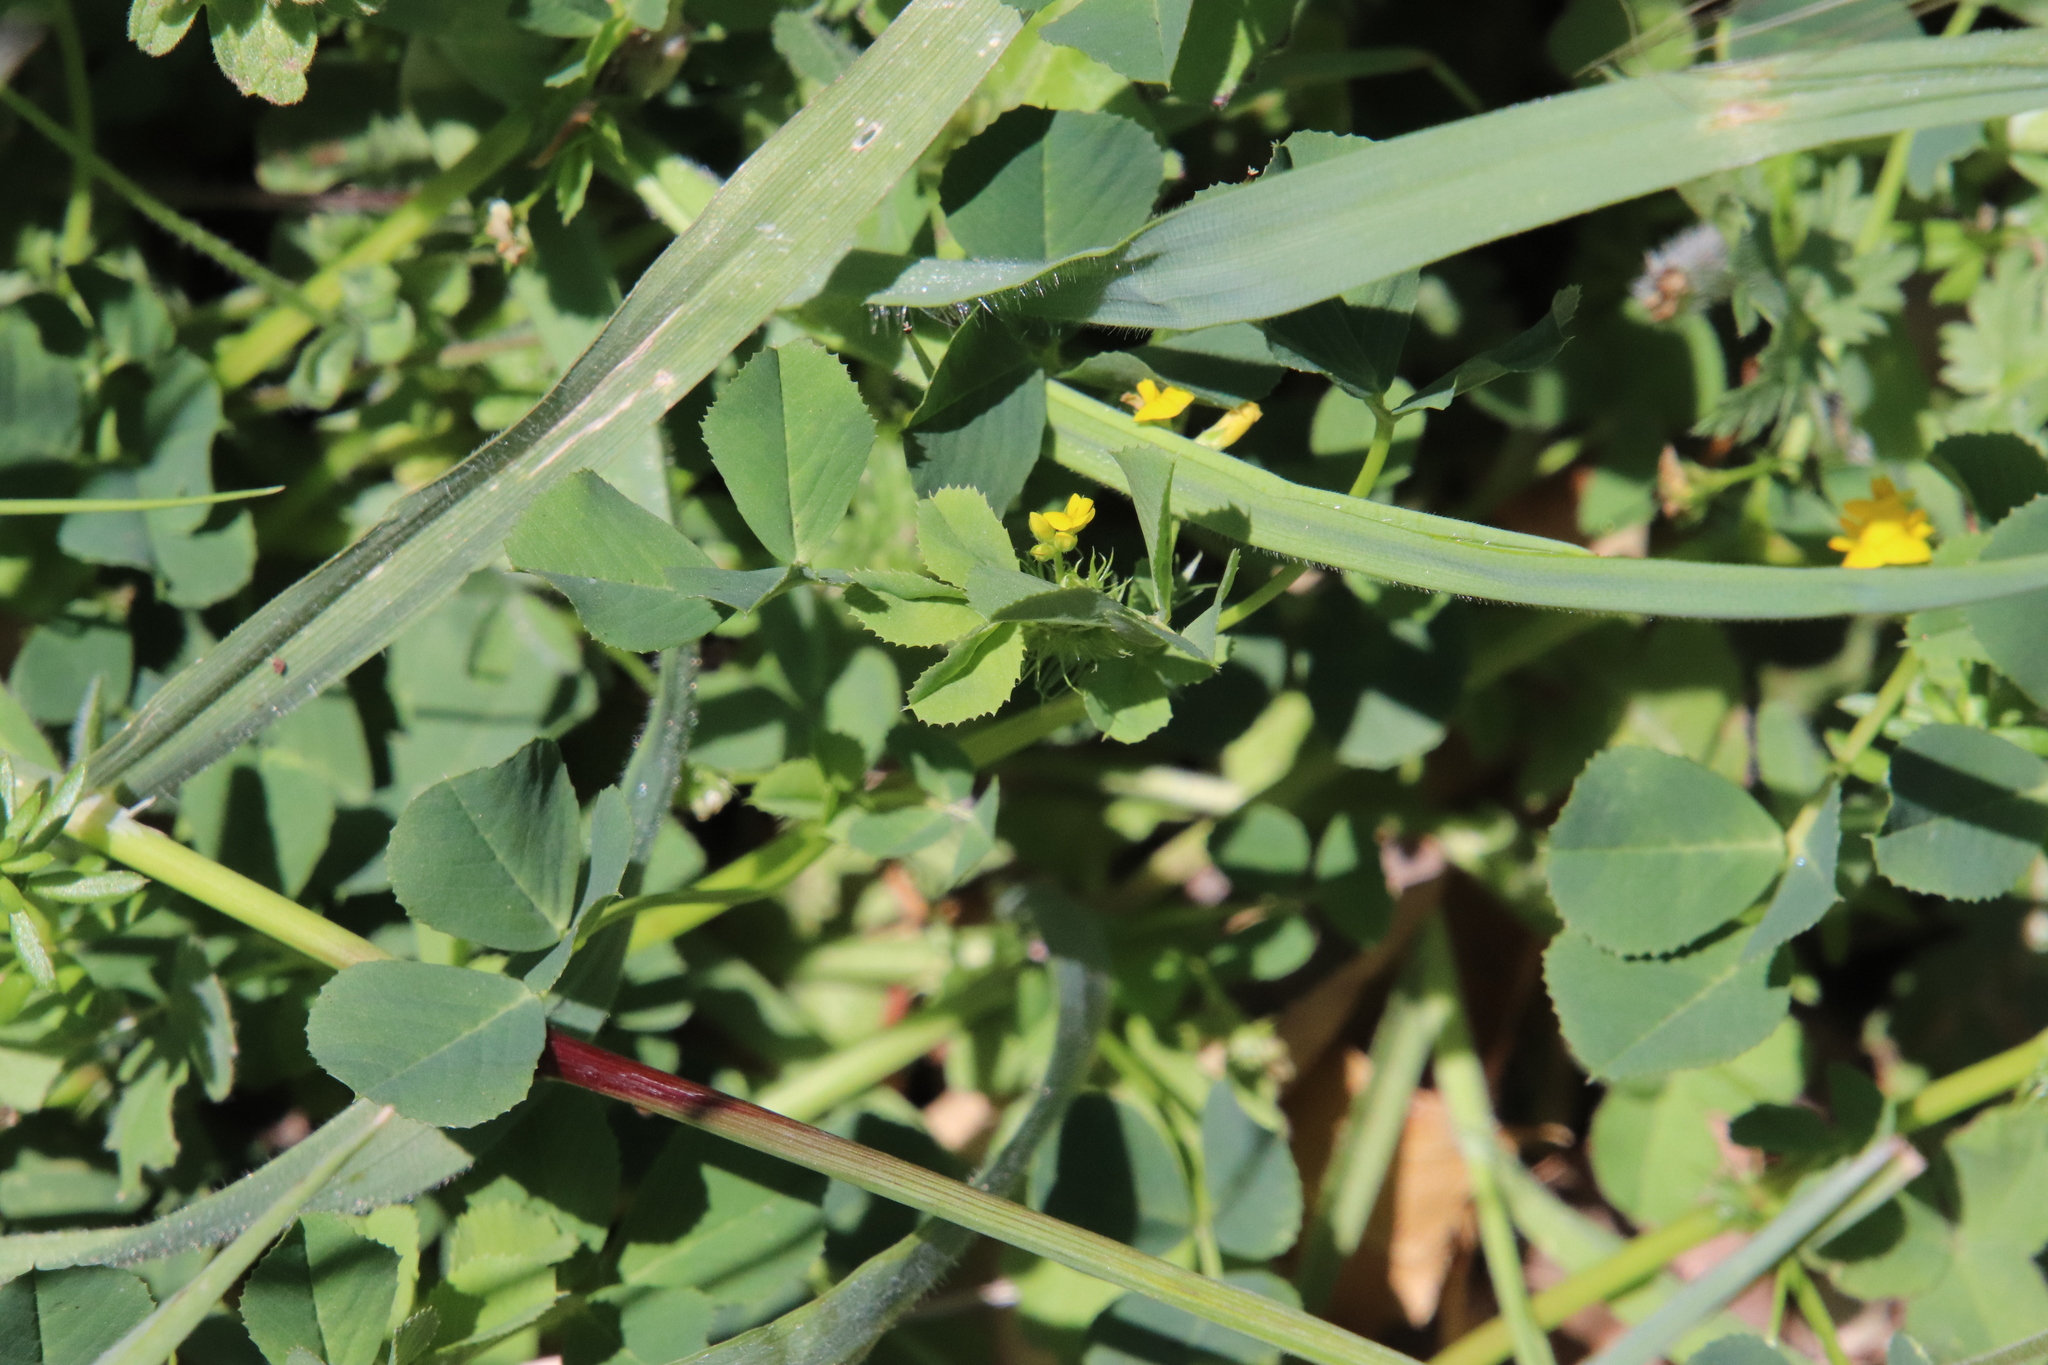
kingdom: Plantae
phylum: Tracheophyta
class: Magnoliopsida
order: Fabales
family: Fabaceae
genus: Medicago
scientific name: Medicago polymorpha
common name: Burclover
